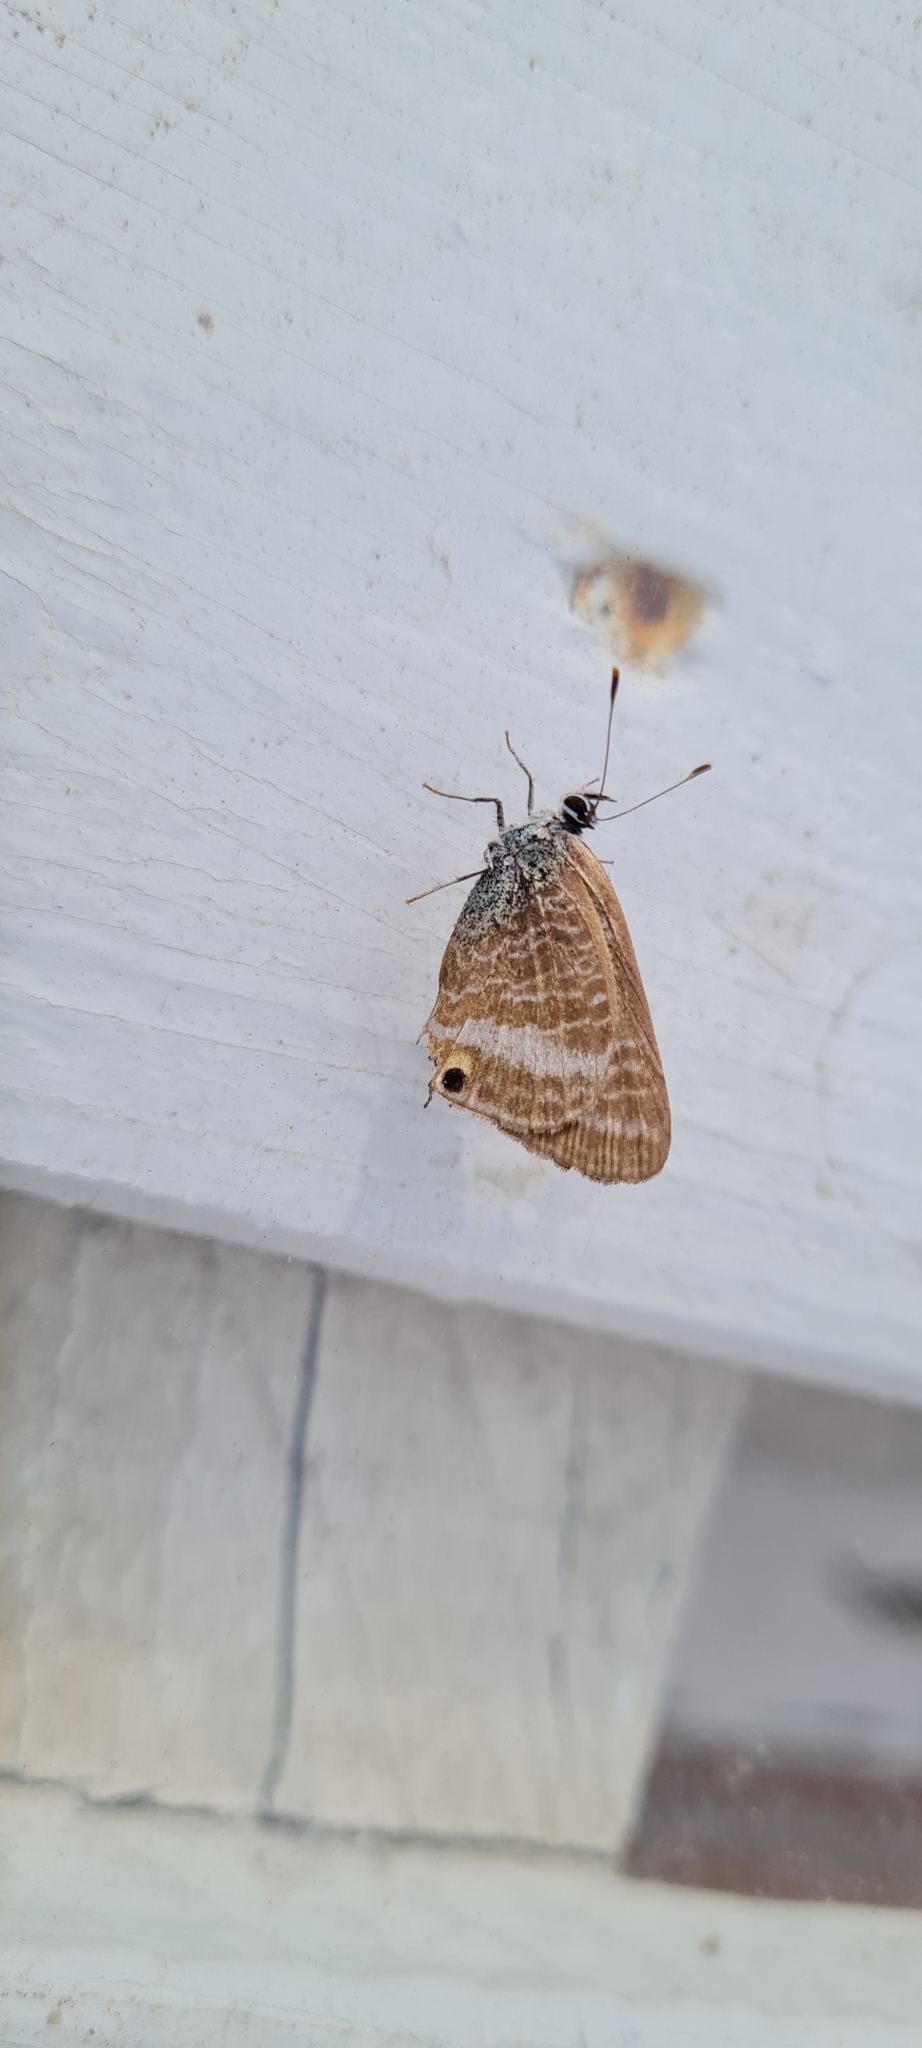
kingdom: Animalia
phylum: Arthropoda
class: Insecta
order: Lepidoptera
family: Lycaenidae
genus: Lampides
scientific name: Lampides boeticus
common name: Long-tailed blue
